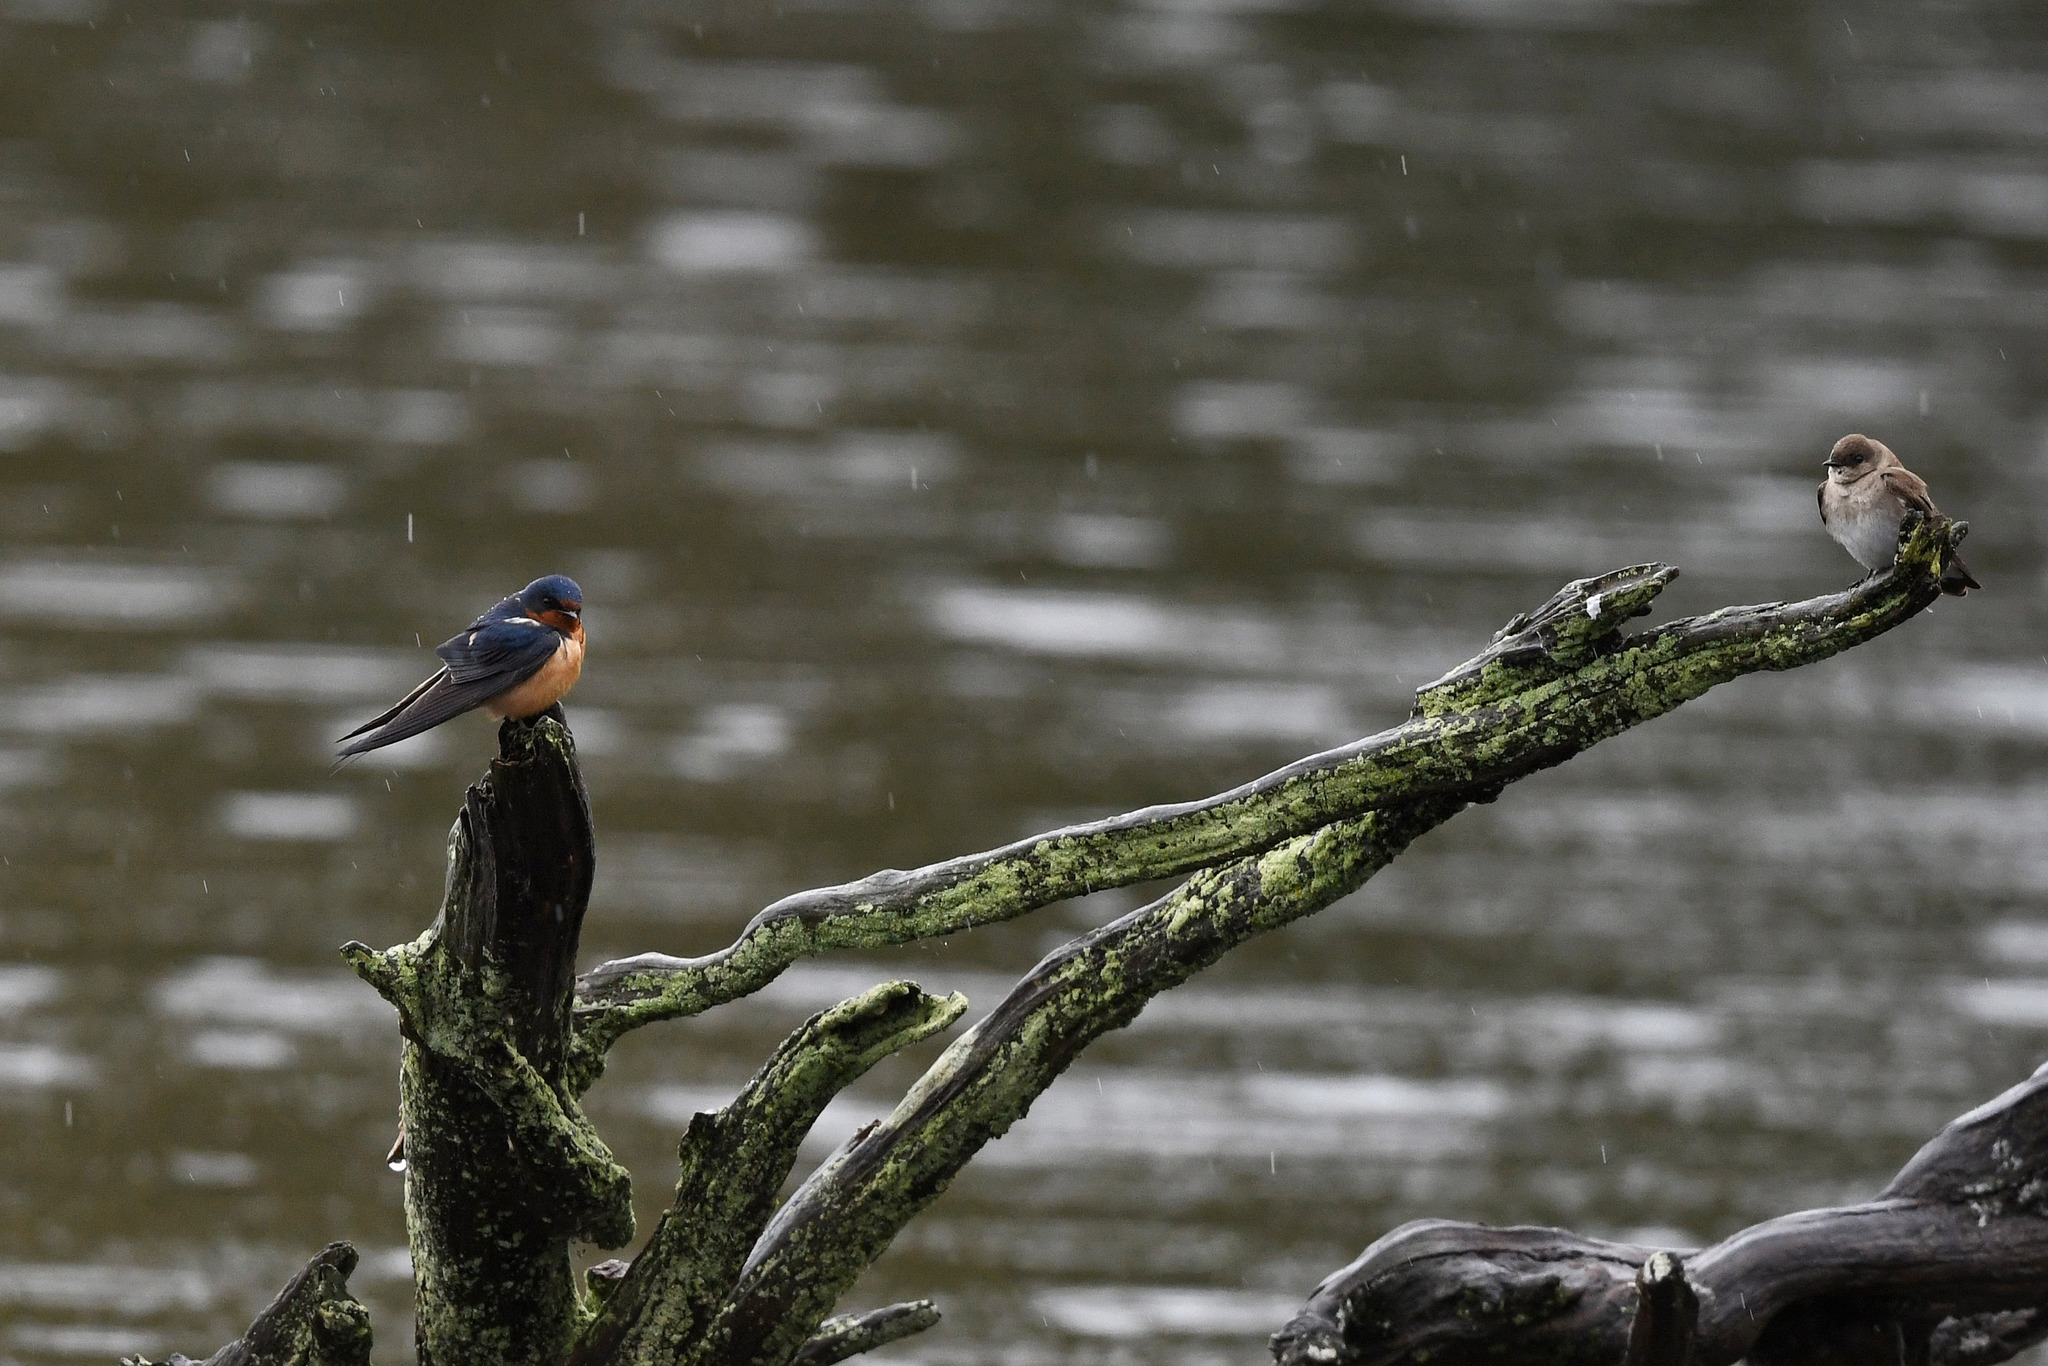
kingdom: Animalia
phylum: Chordata
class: Aves
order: Passeriformes
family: Hirundinidae
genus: Hirundo
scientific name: Hirundo rustica
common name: Barn swallow
